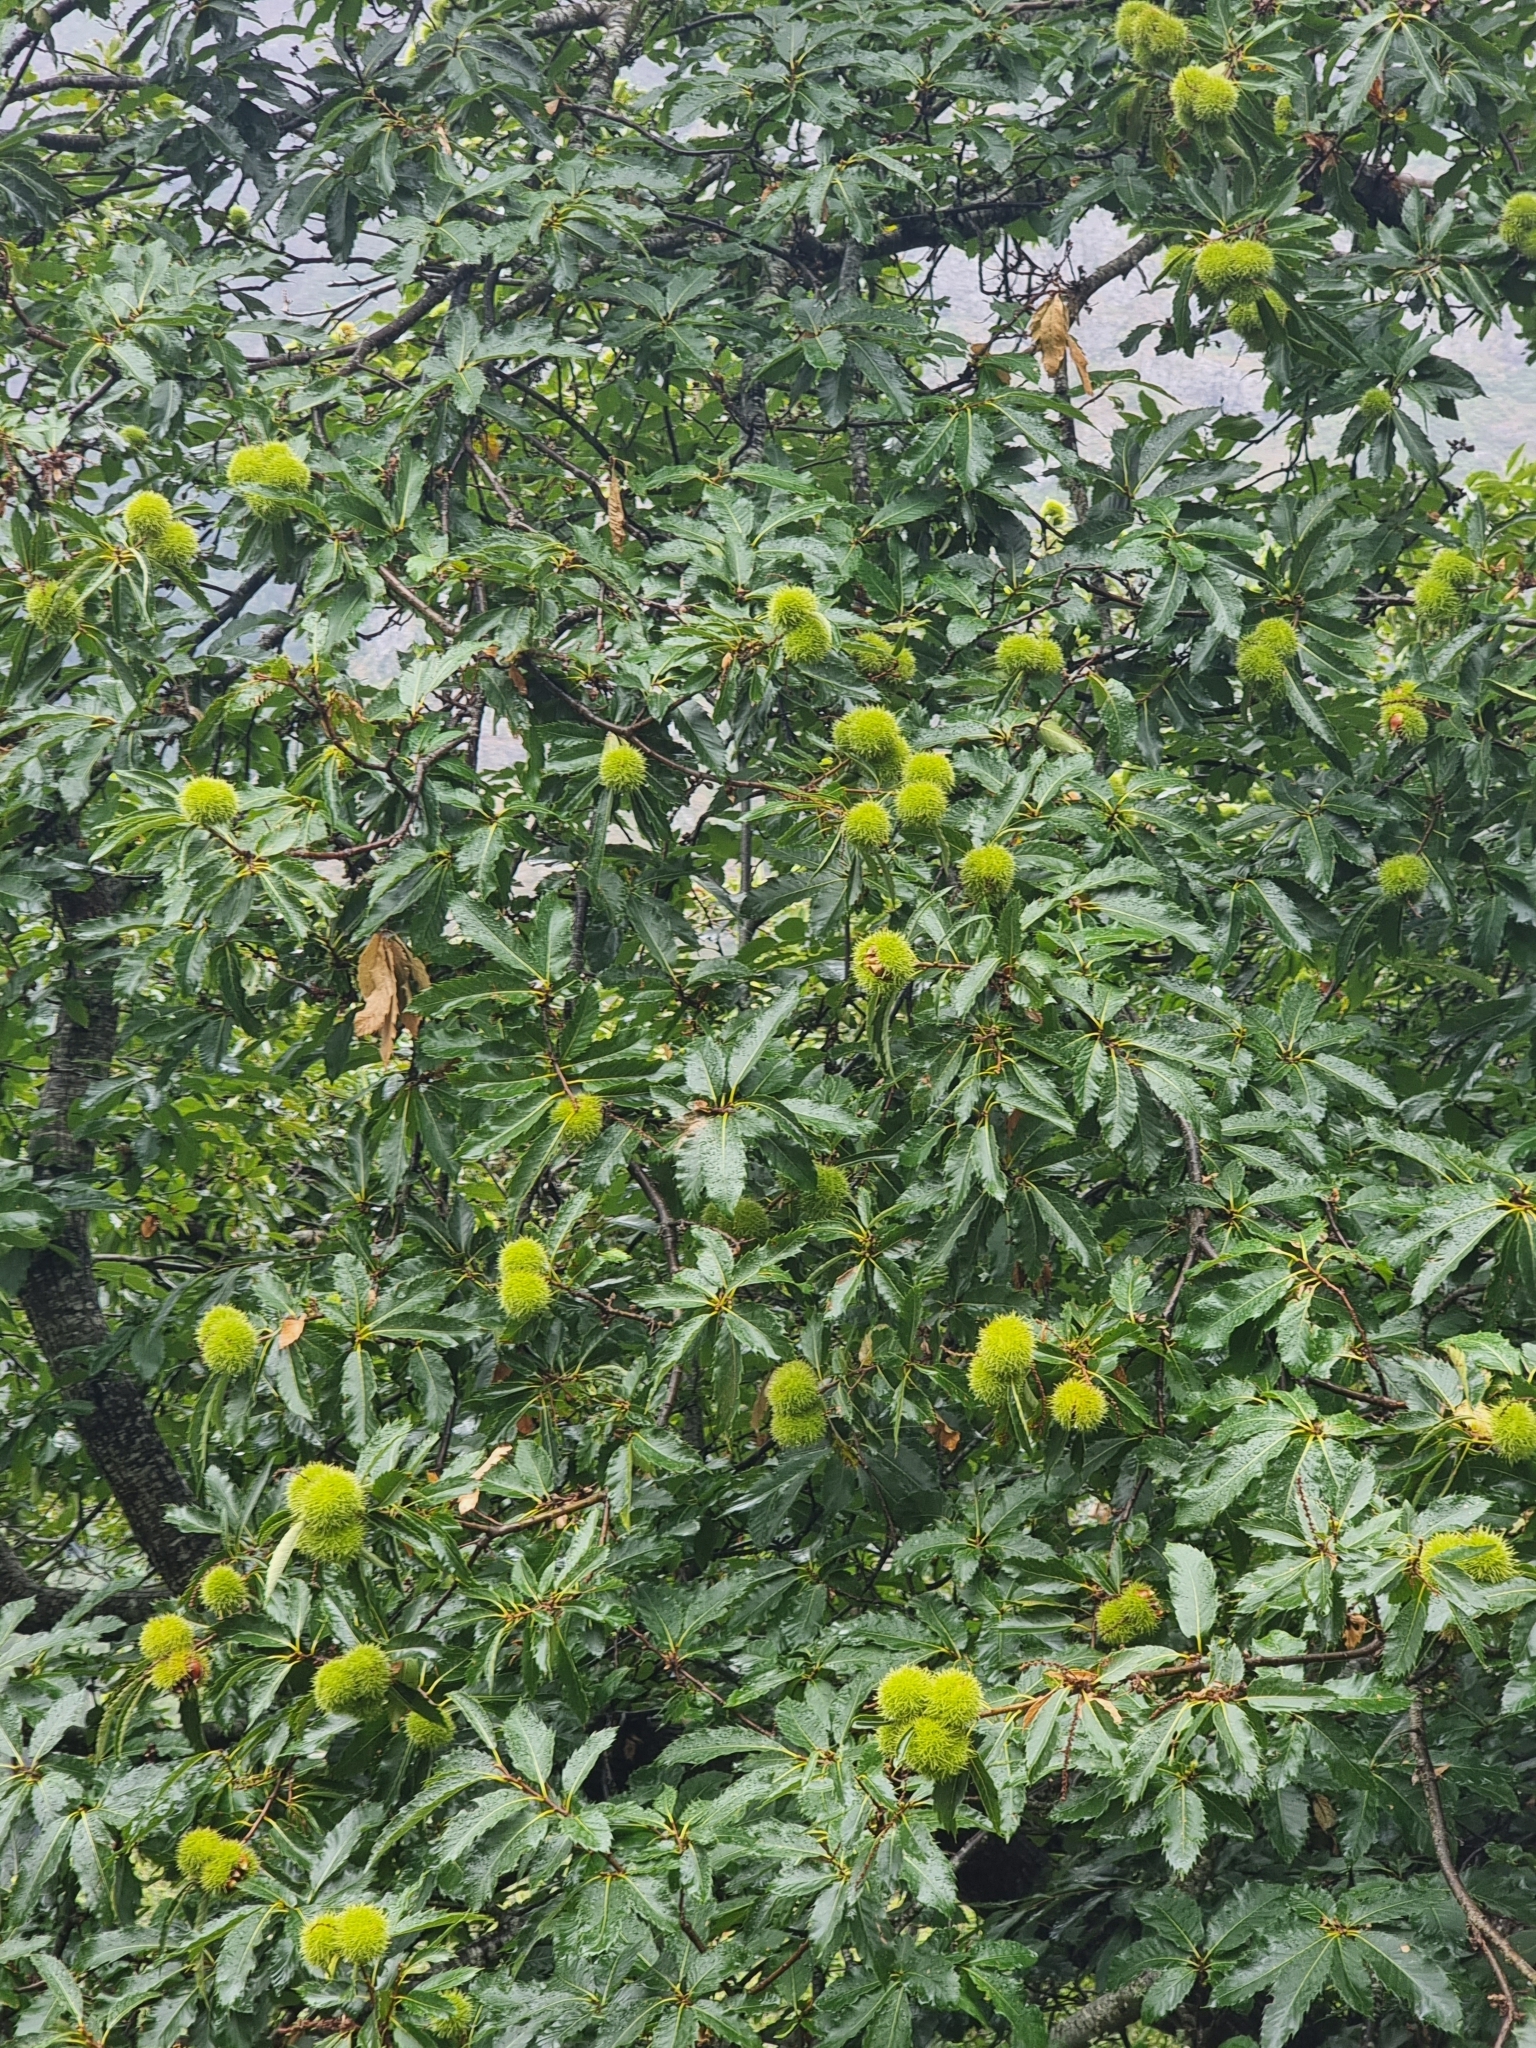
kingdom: Plantae
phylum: Tracheophyta
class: Magnoliopsida
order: Fagales
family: Fagaceae
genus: Castanea
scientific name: Castanea sativa
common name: Sweet chestnut
